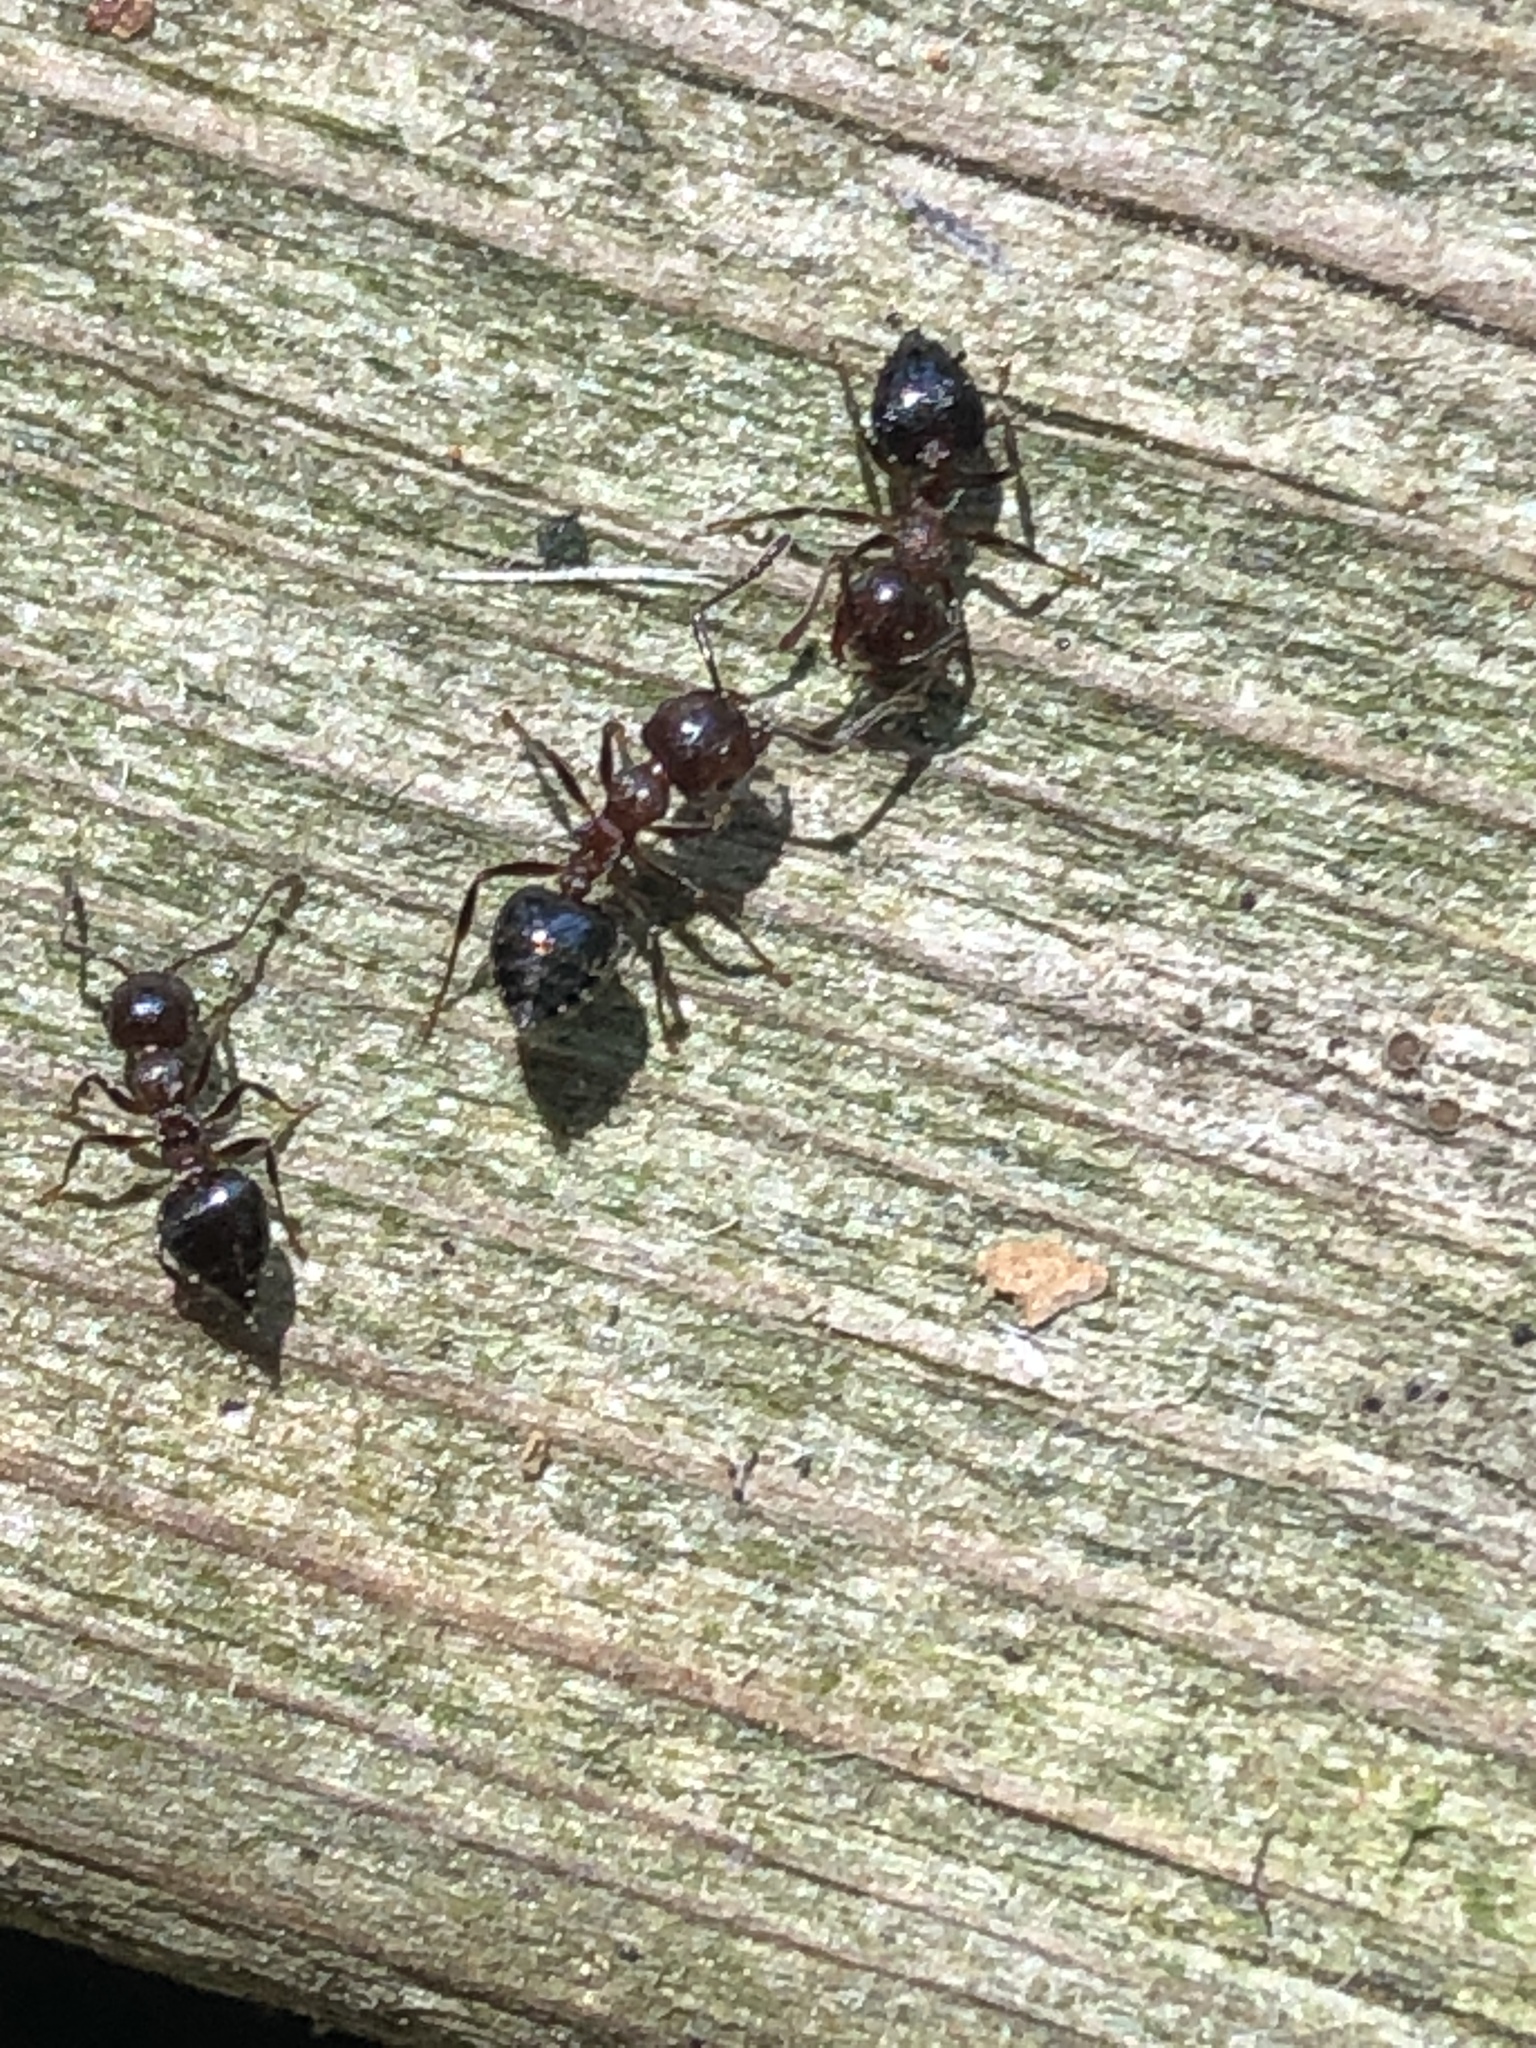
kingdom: Animalia
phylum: Arthropoda
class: Insecta
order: Hymenoptera
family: Formicidae
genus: Crematogaster
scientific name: Crematogaster
